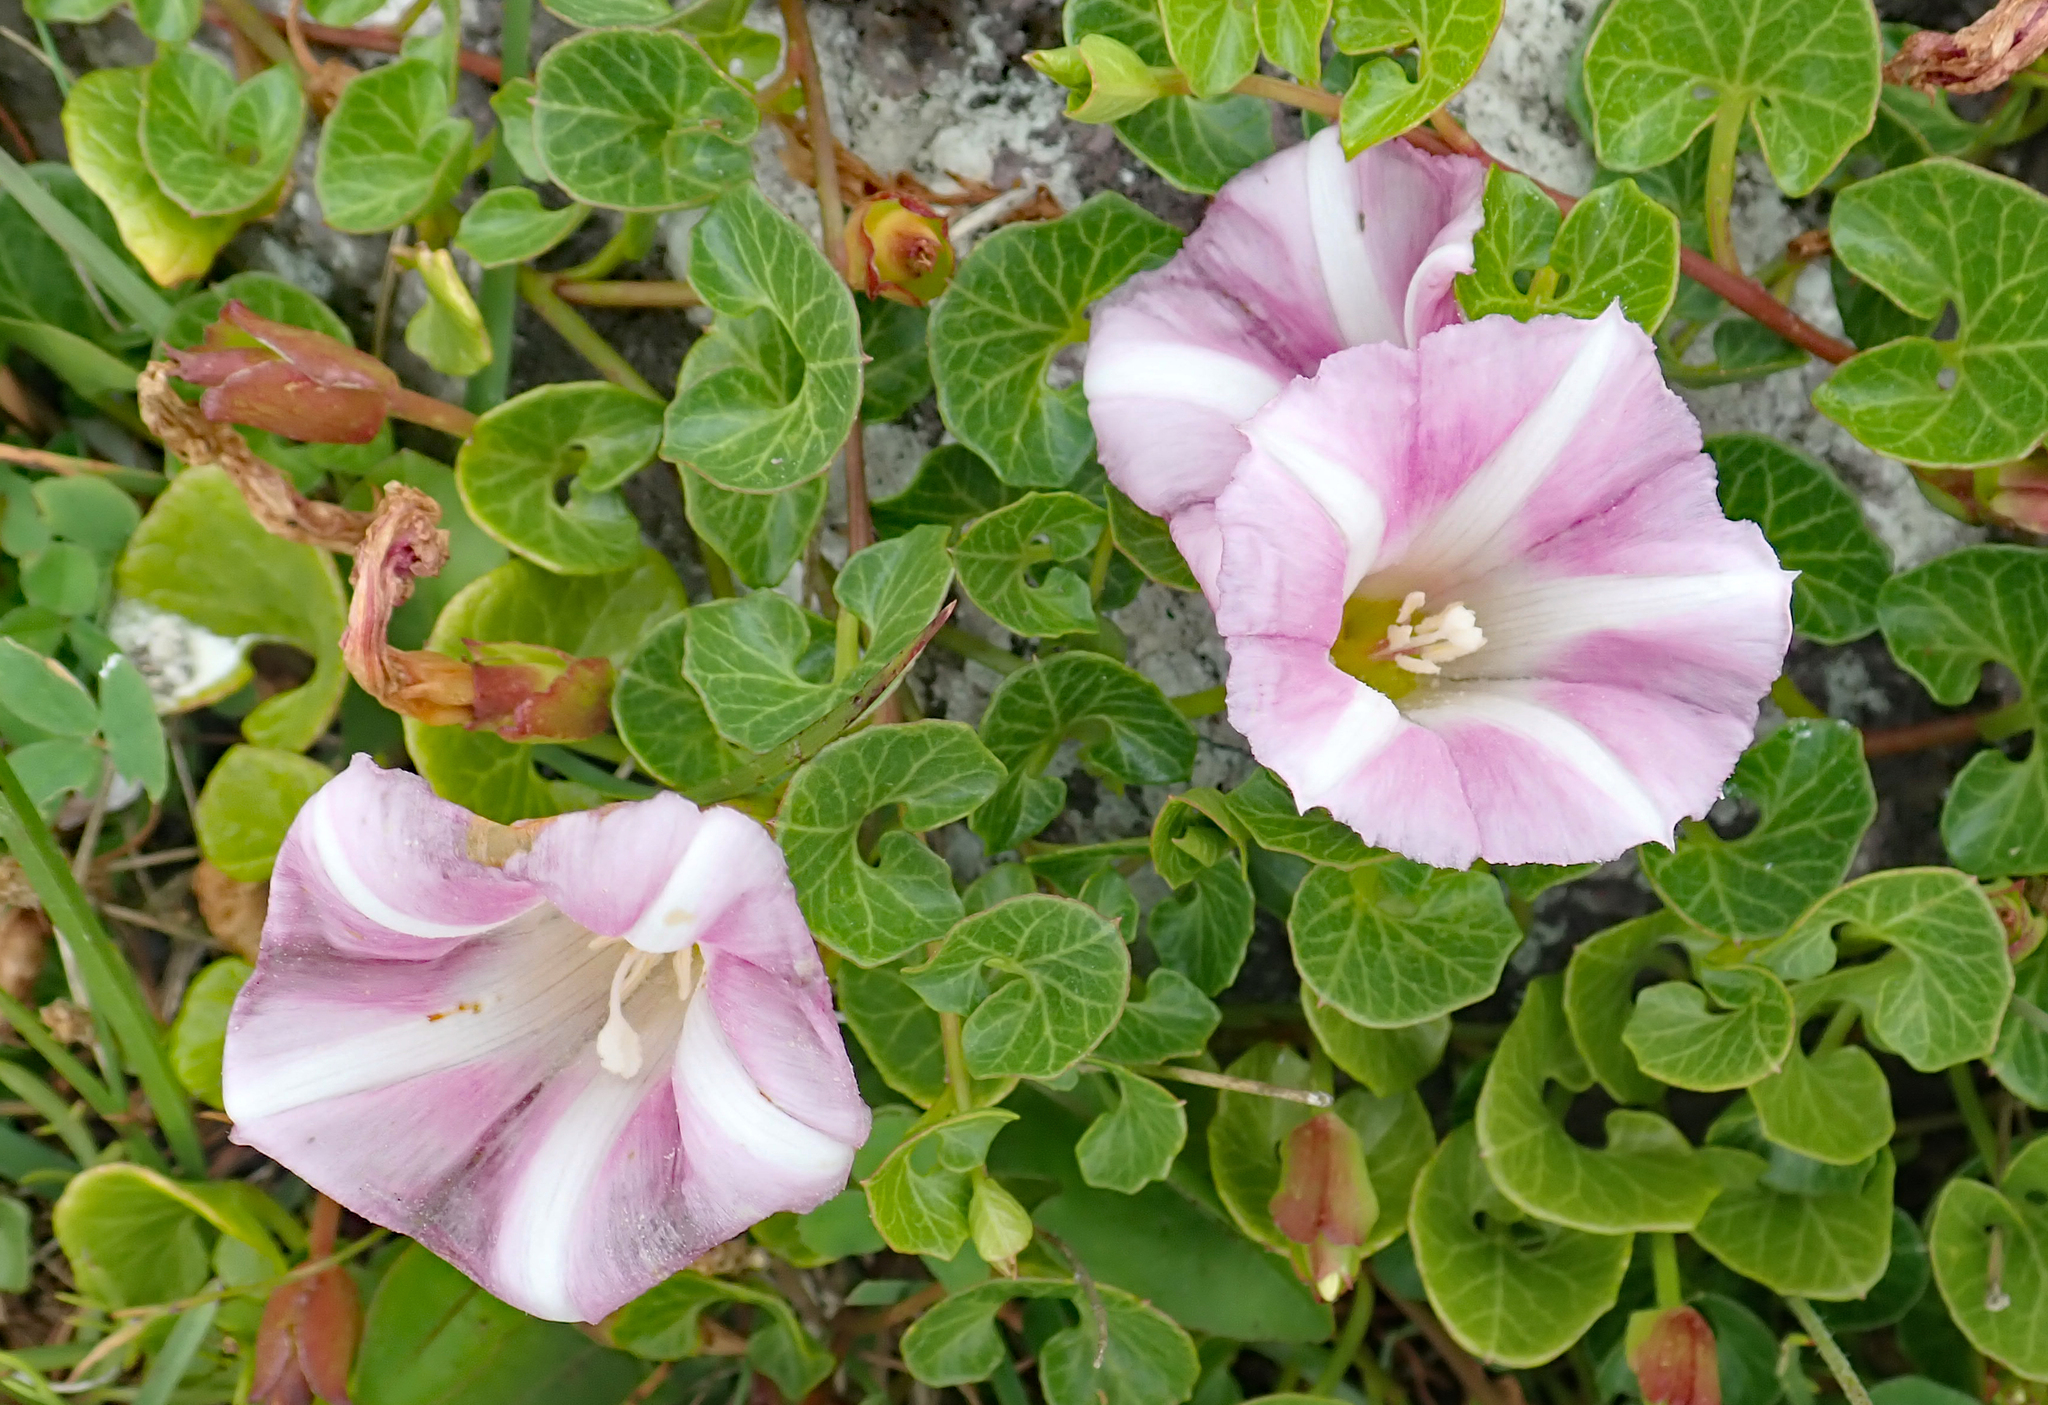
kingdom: Plantae
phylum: Tracheophyta
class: Magnoliopsida
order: Solanales
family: Convolvulaceae
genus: Calystegia
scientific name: Calystegia soldanella
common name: Sea bindweed
